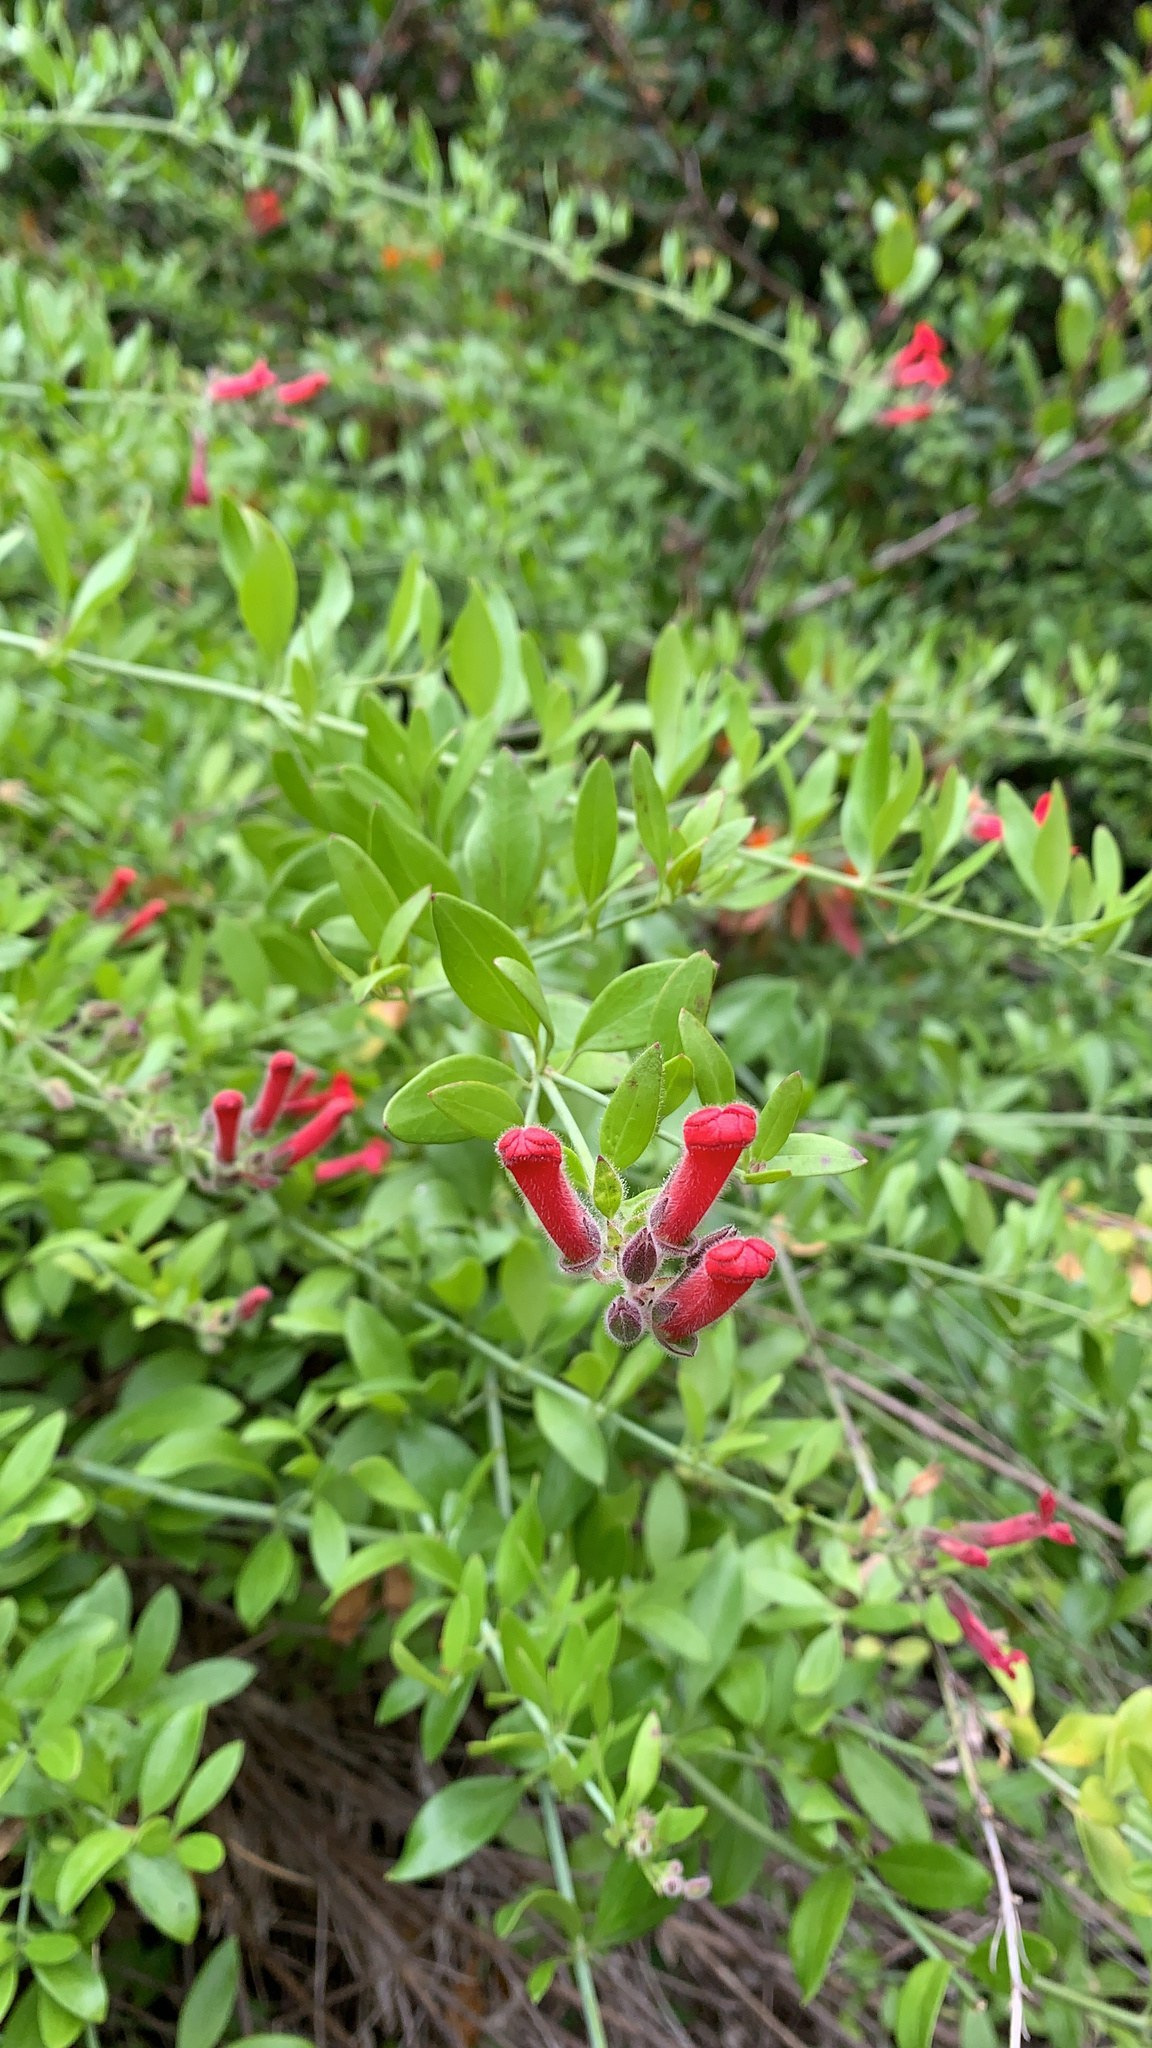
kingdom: Plantae
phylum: Tracheophyta
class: Magnoliopsida
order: Lamiales
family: Plantaginaceae
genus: Gambelia
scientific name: Gambelia speciosa
